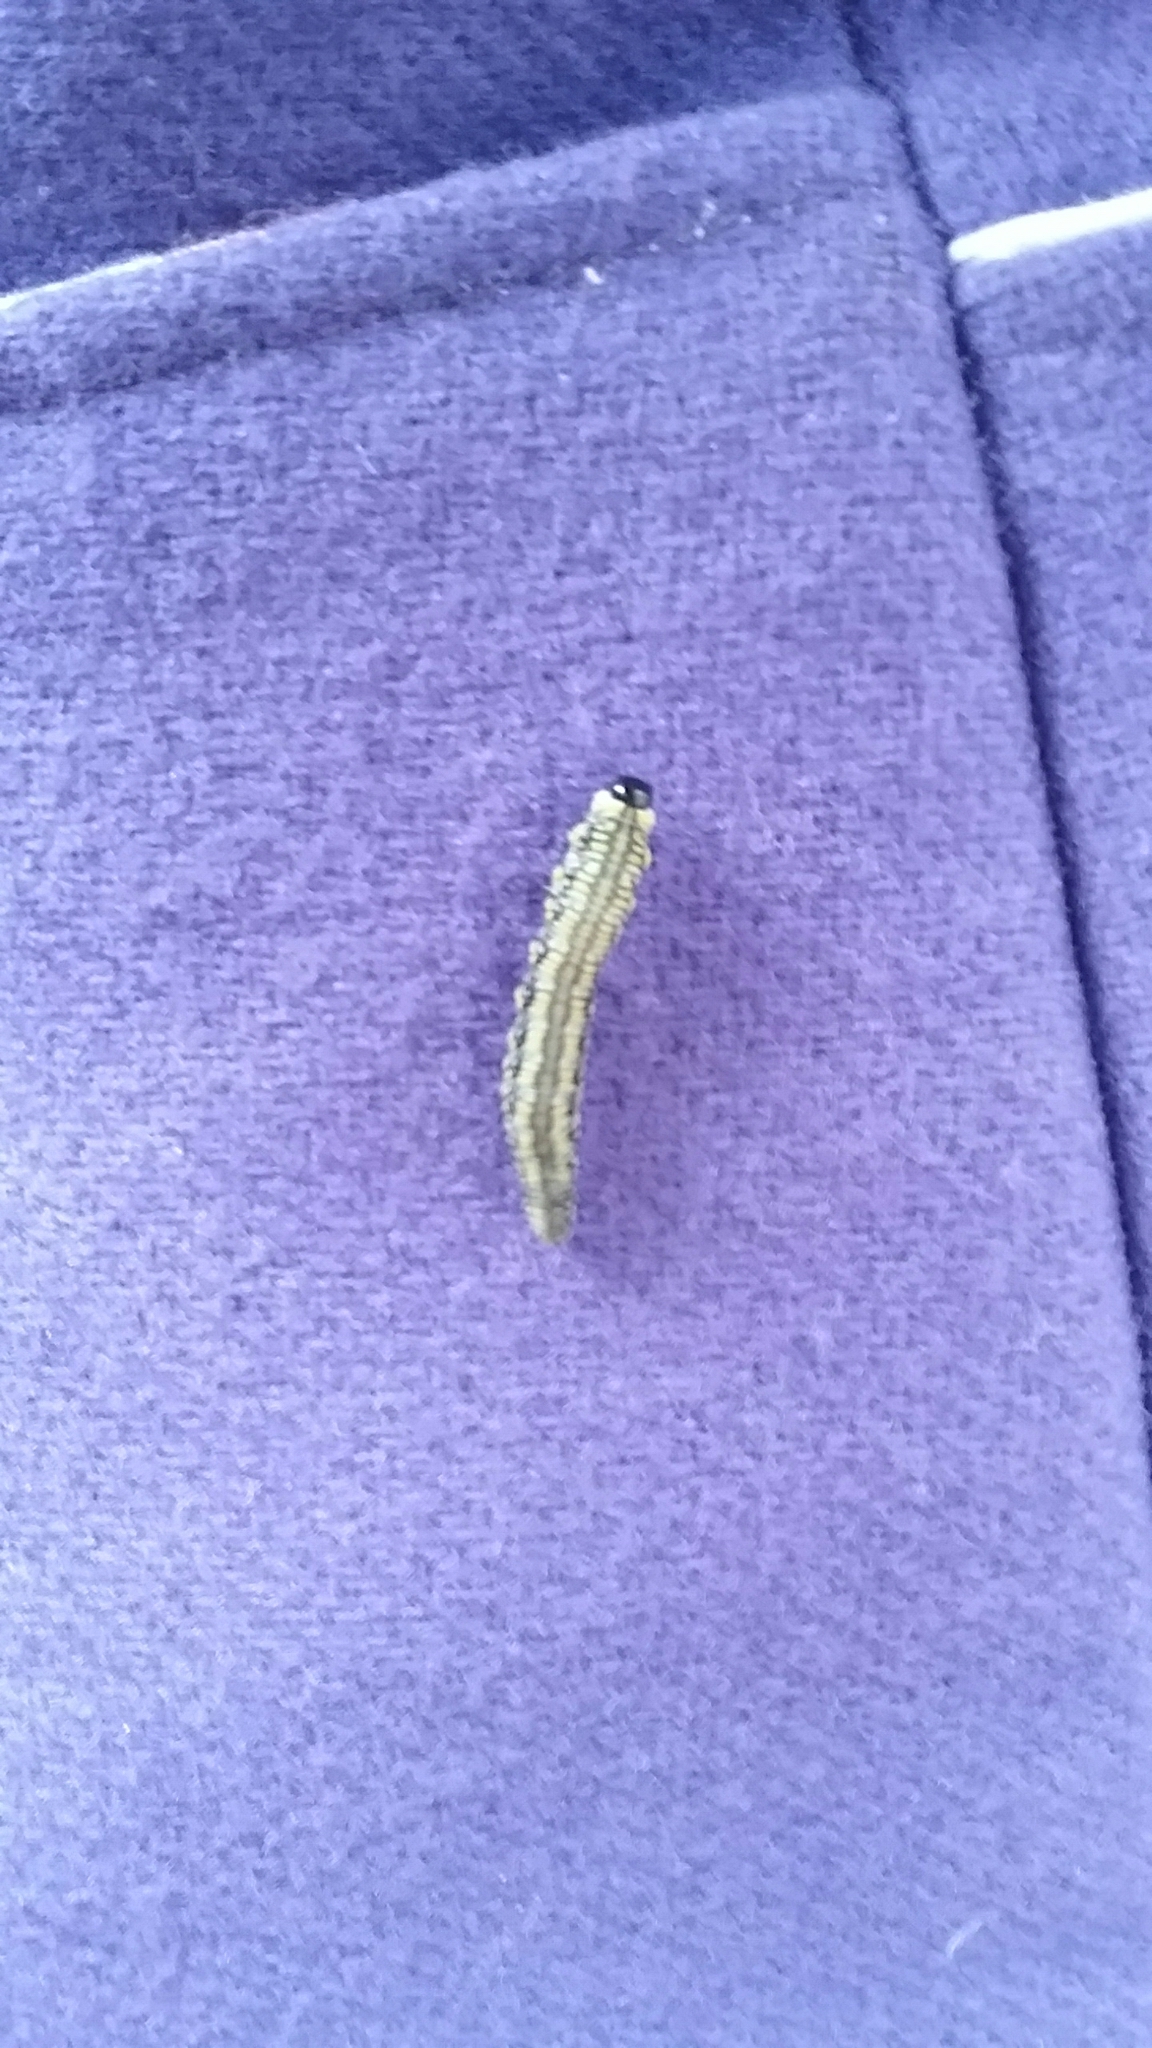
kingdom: Animalia
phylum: Arthropoda
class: Insecta
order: Hymenoptera
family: Diprionidae
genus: Diprion
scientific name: Diprion similis
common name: Pine sawfly
